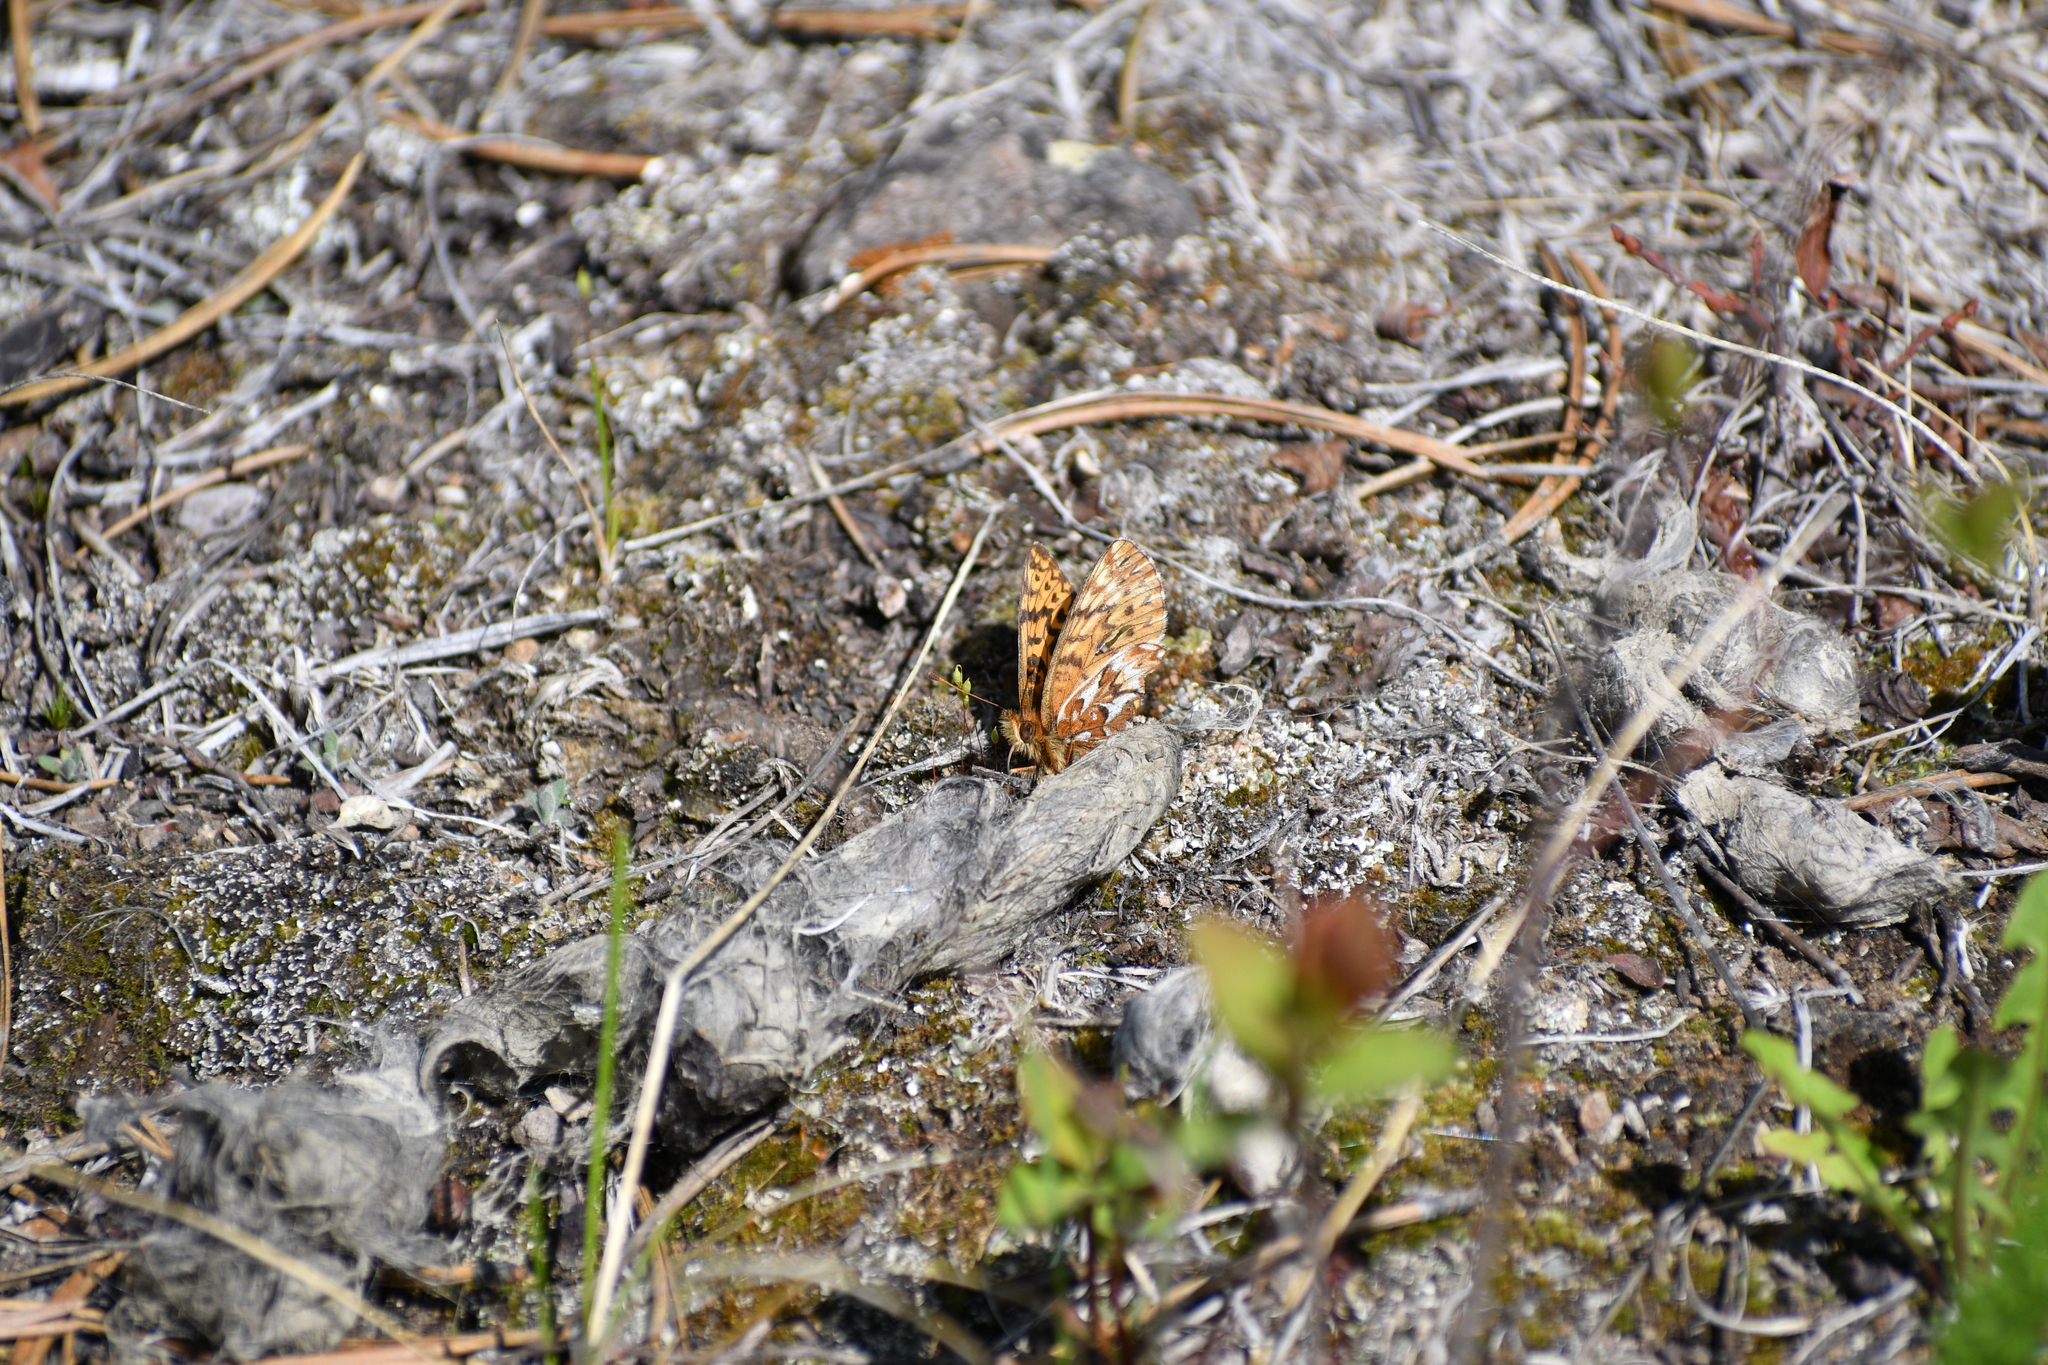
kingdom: Animalia
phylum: Arthropoda
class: Insecta
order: Lepidoptera
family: Nymphalidae
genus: Boloria
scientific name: Boloria freija
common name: Freija fritillary
